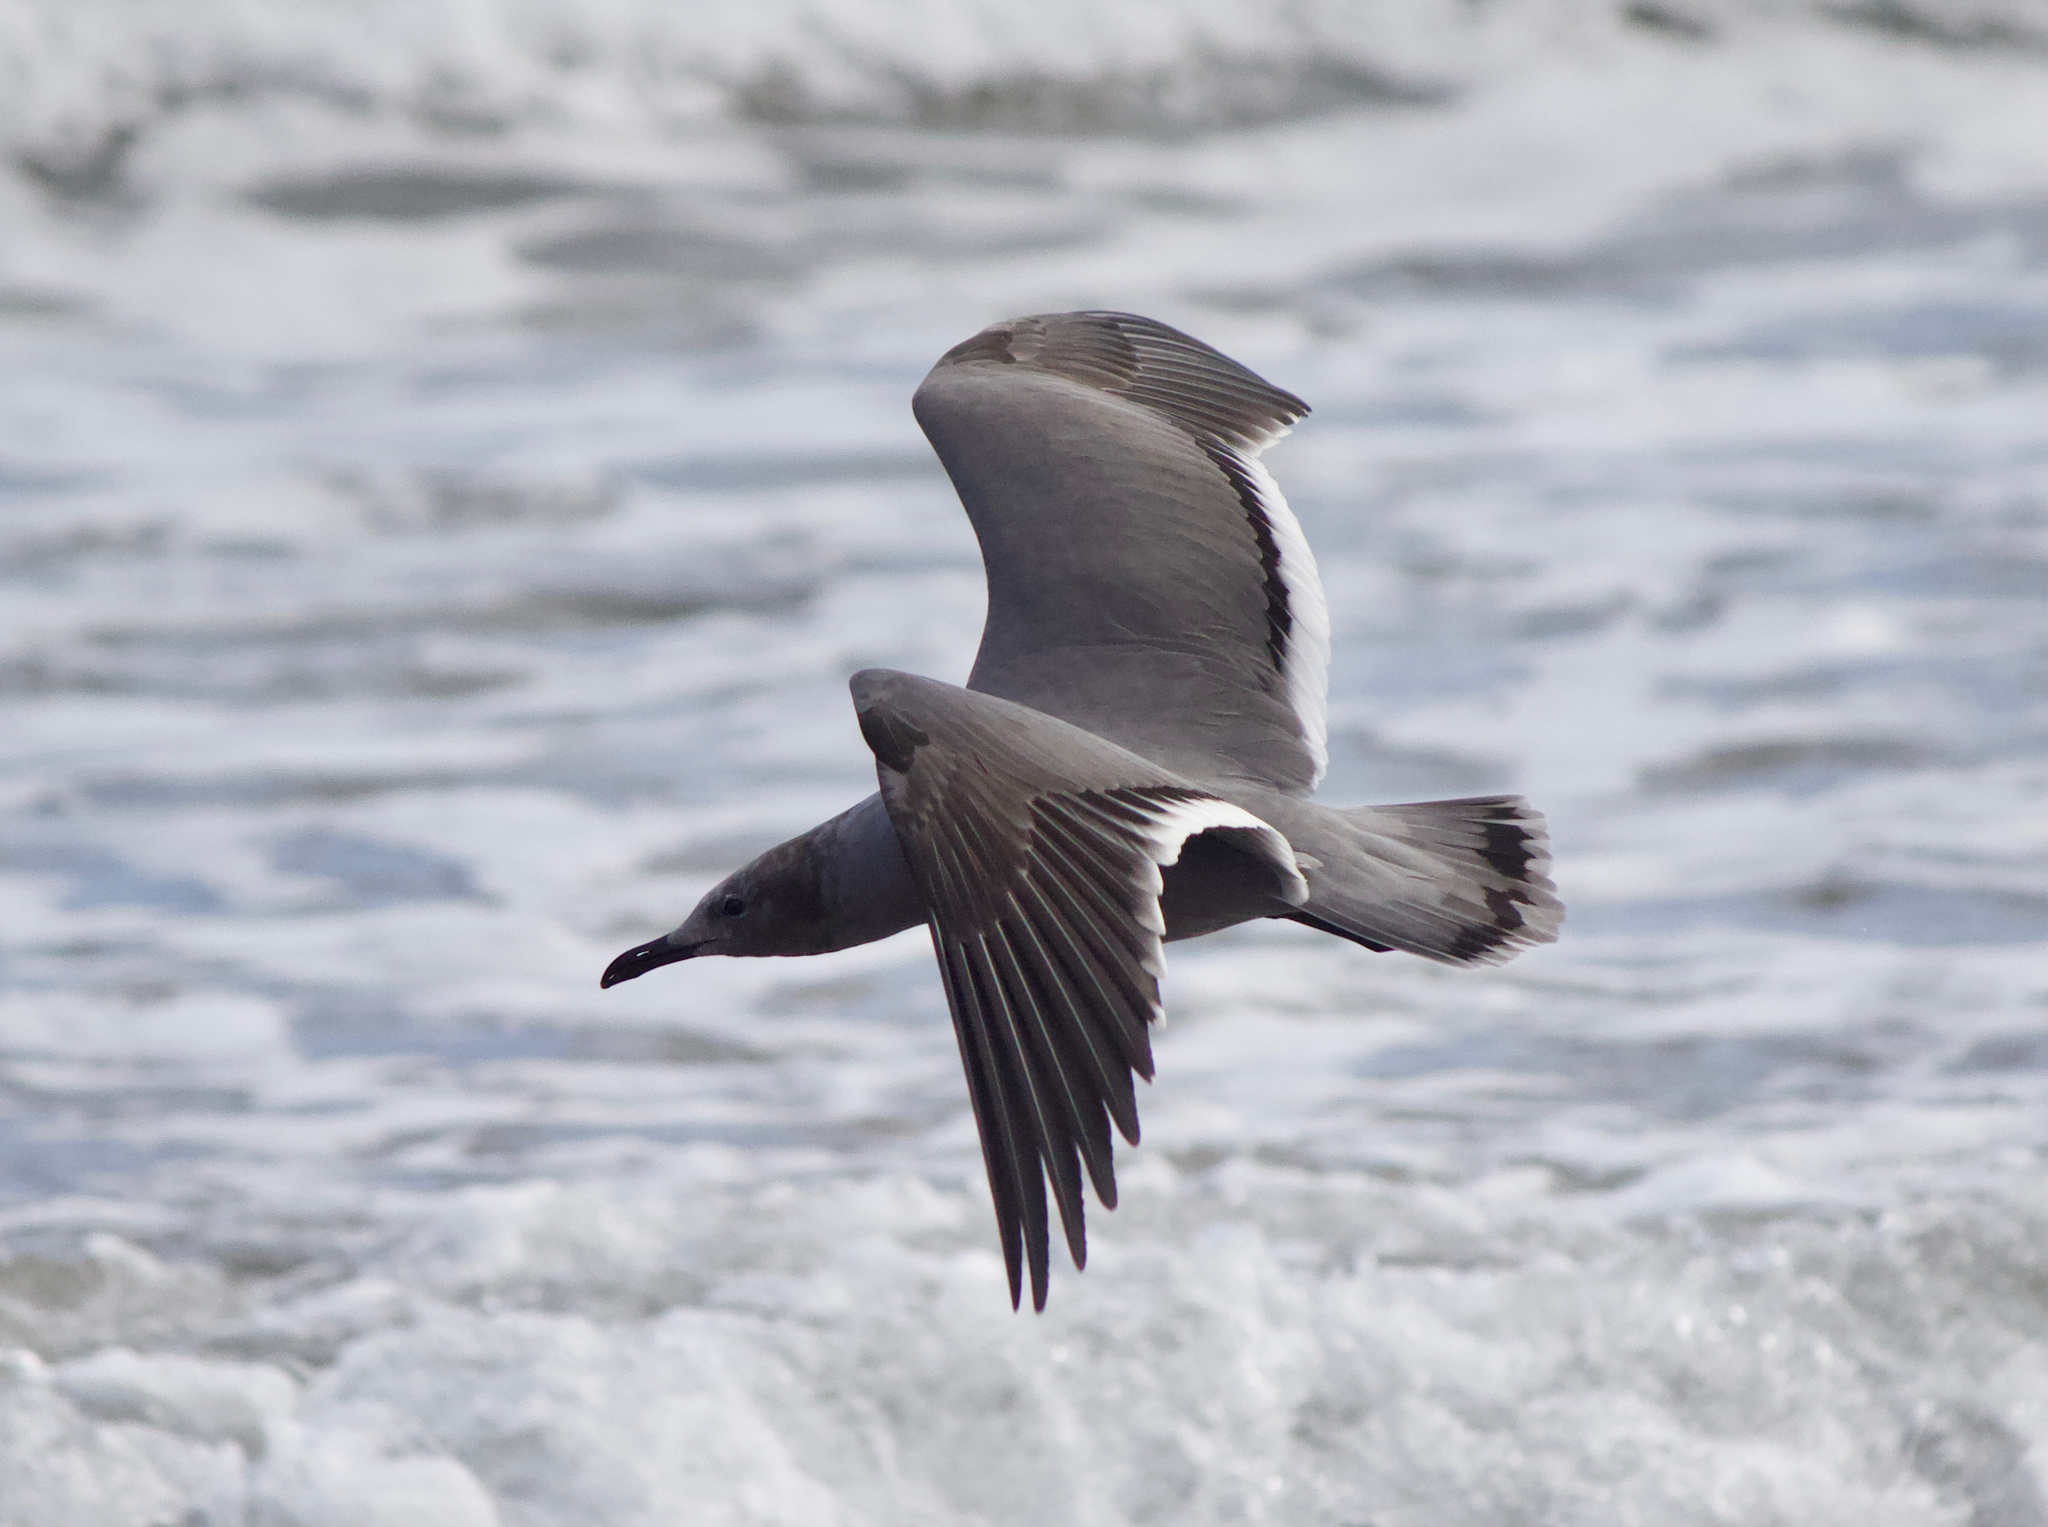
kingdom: Animalia
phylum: Chordata
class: Aves
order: Charadriiformes
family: Laridae
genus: Leucophaeus
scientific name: Leucophaeus modestus
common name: Gray gull
